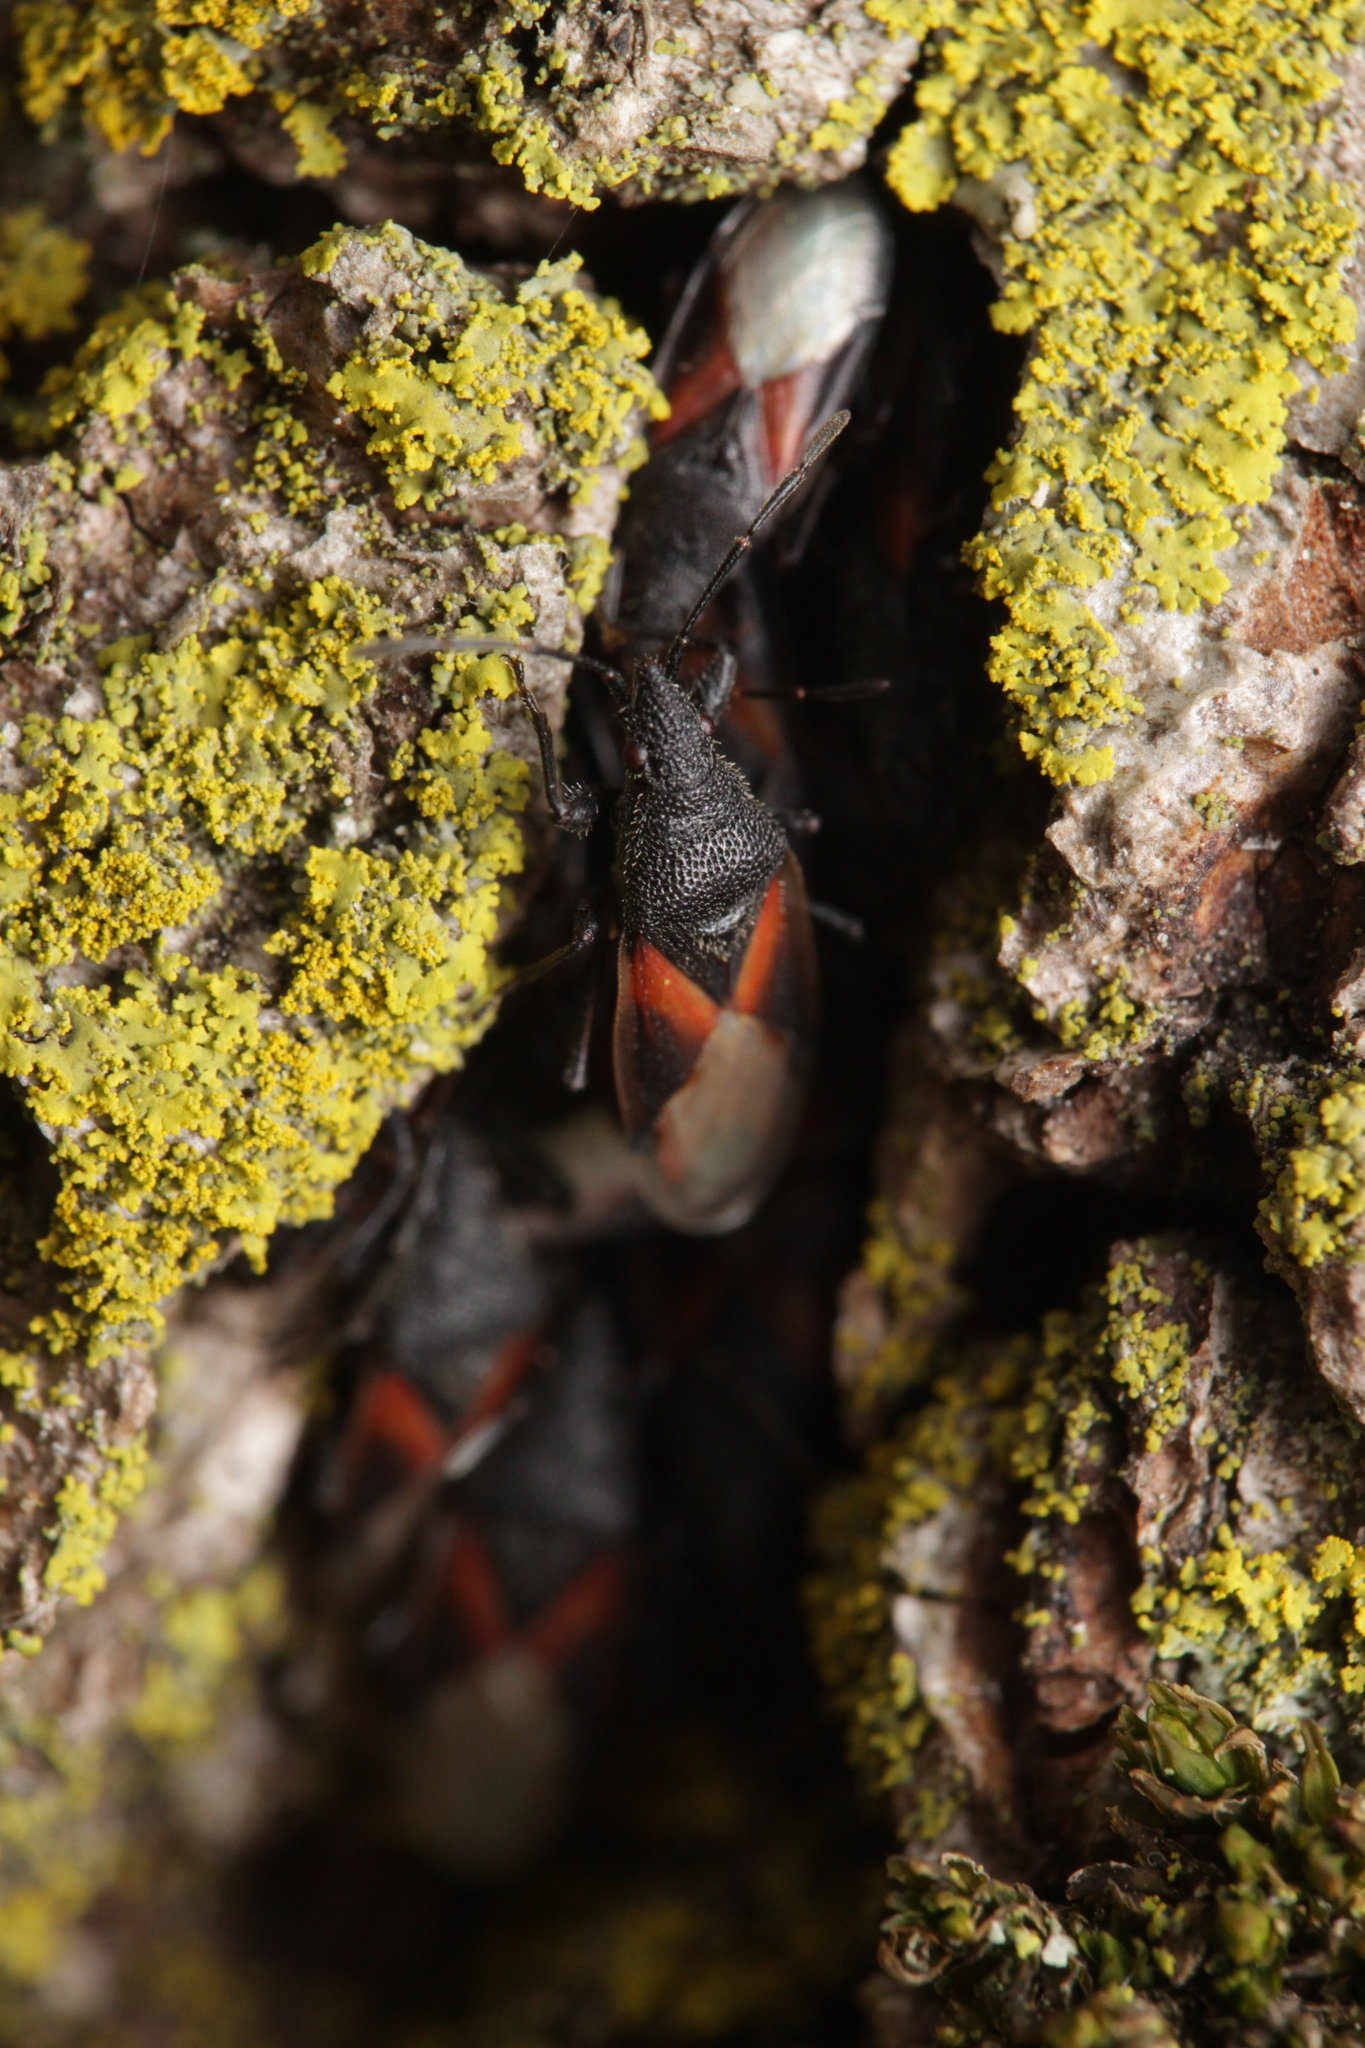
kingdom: Animalia
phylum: Arthropoda
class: Insecta
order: Hemiptera
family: Oxycarenidae
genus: Oxycarenus
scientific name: Oxycarenus lavaterae
